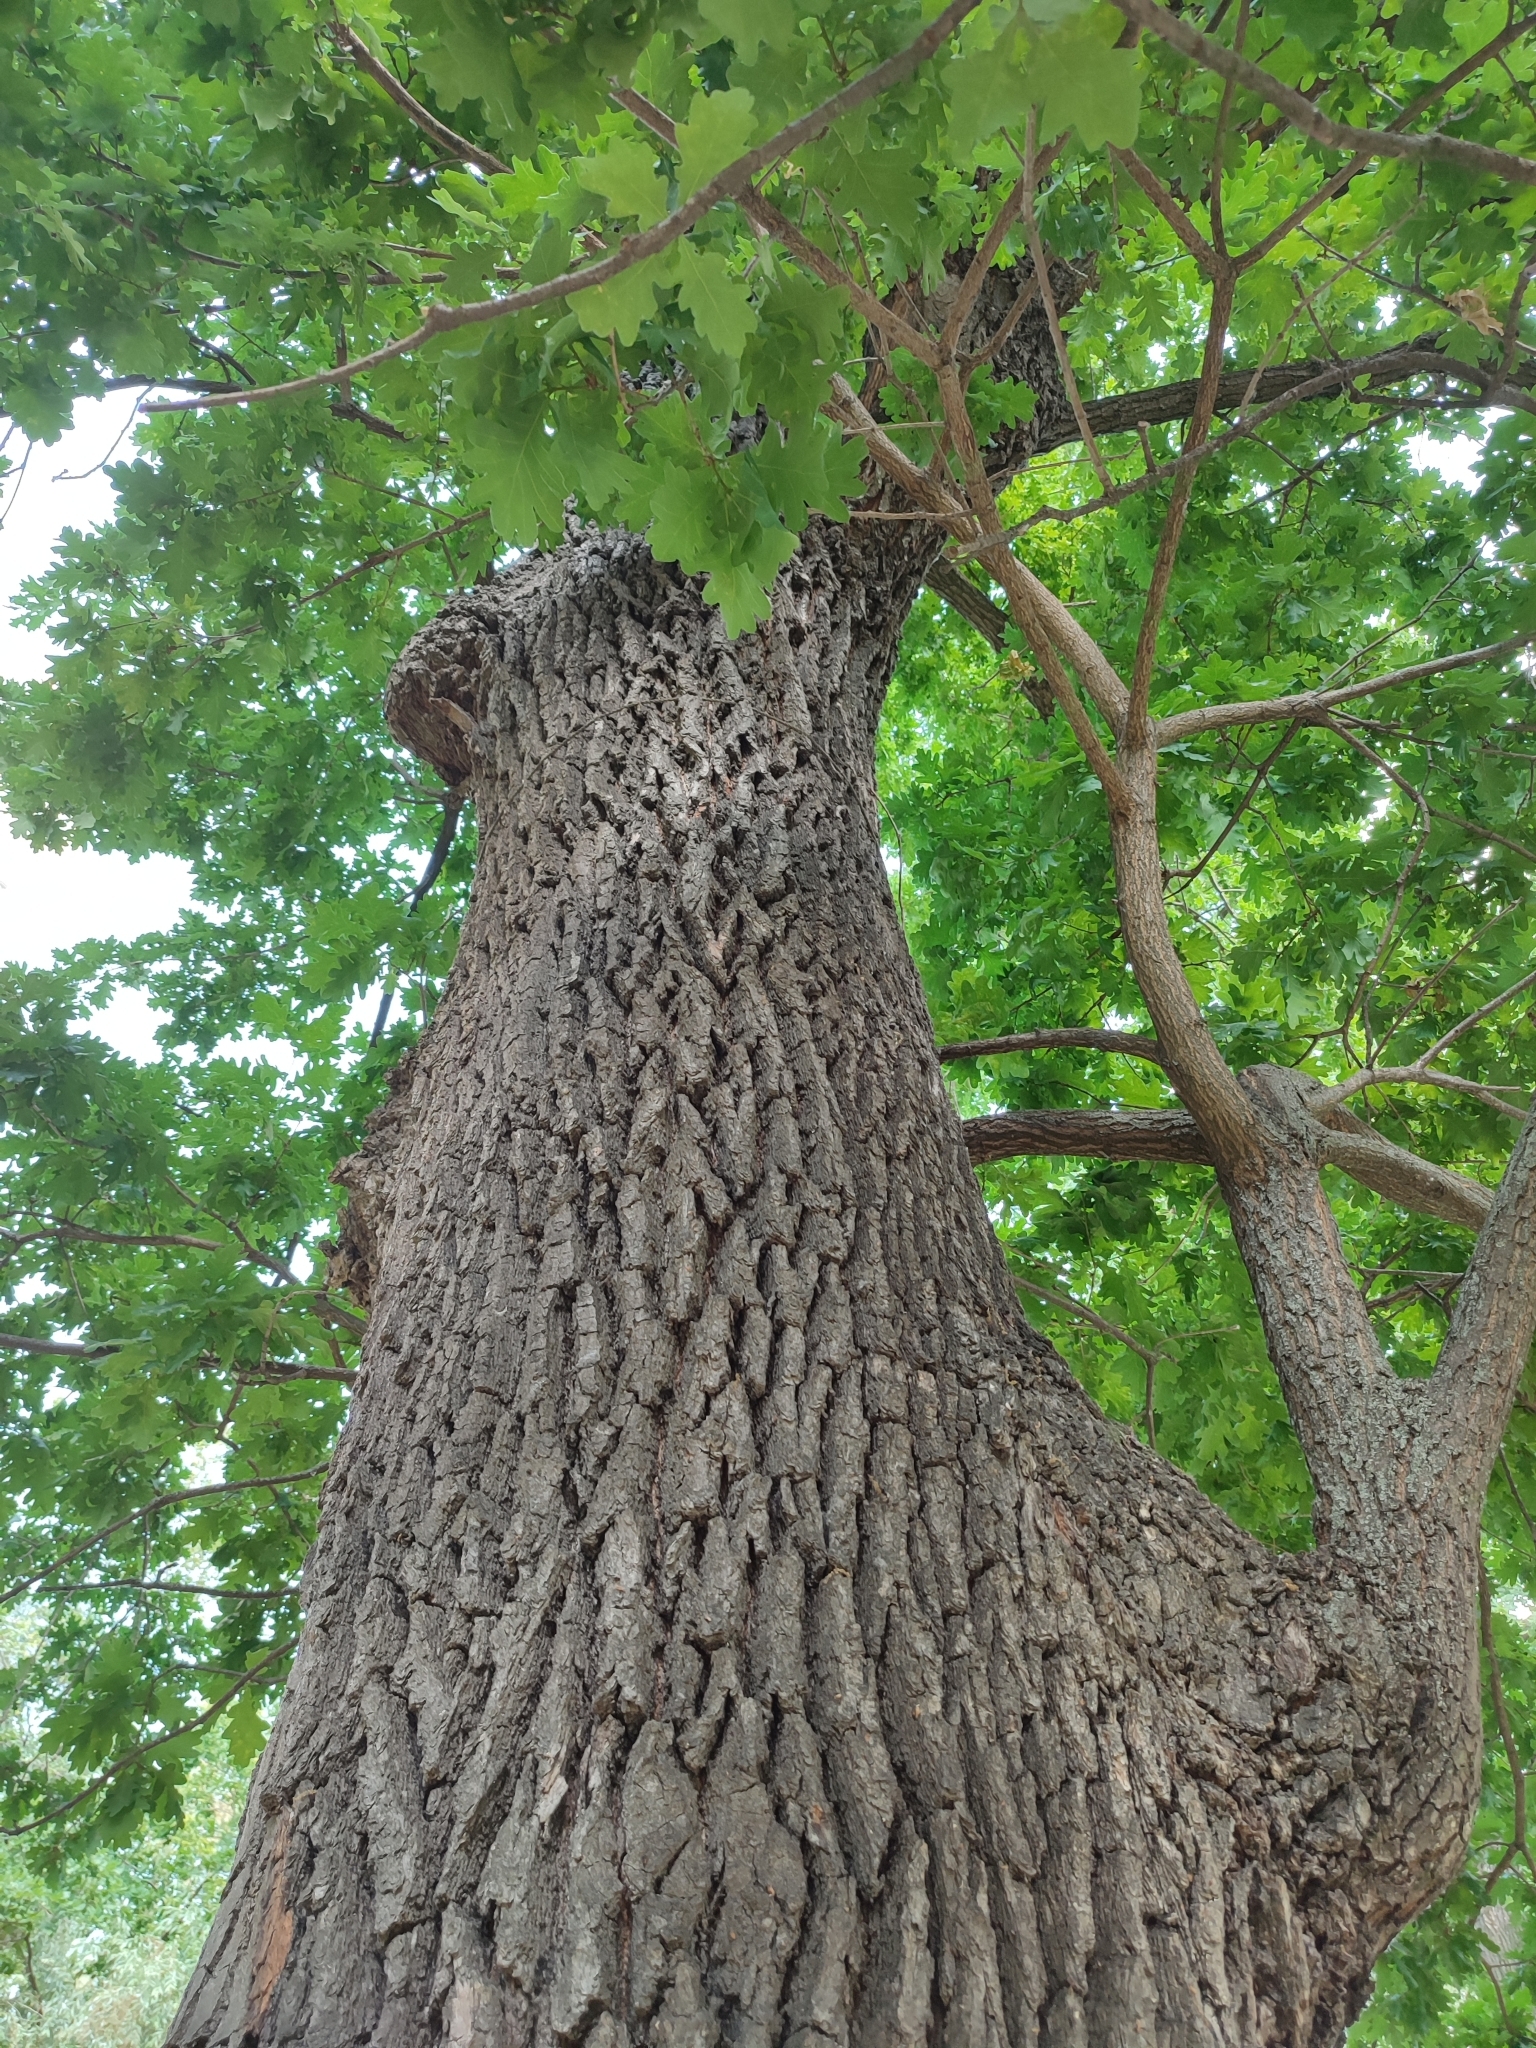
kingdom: Plantae
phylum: Tracheophyta
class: Magnoliopsida
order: Fagales
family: Fagaceae
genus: Quercus
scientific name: Quercus robur
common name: Pedunculate oak
